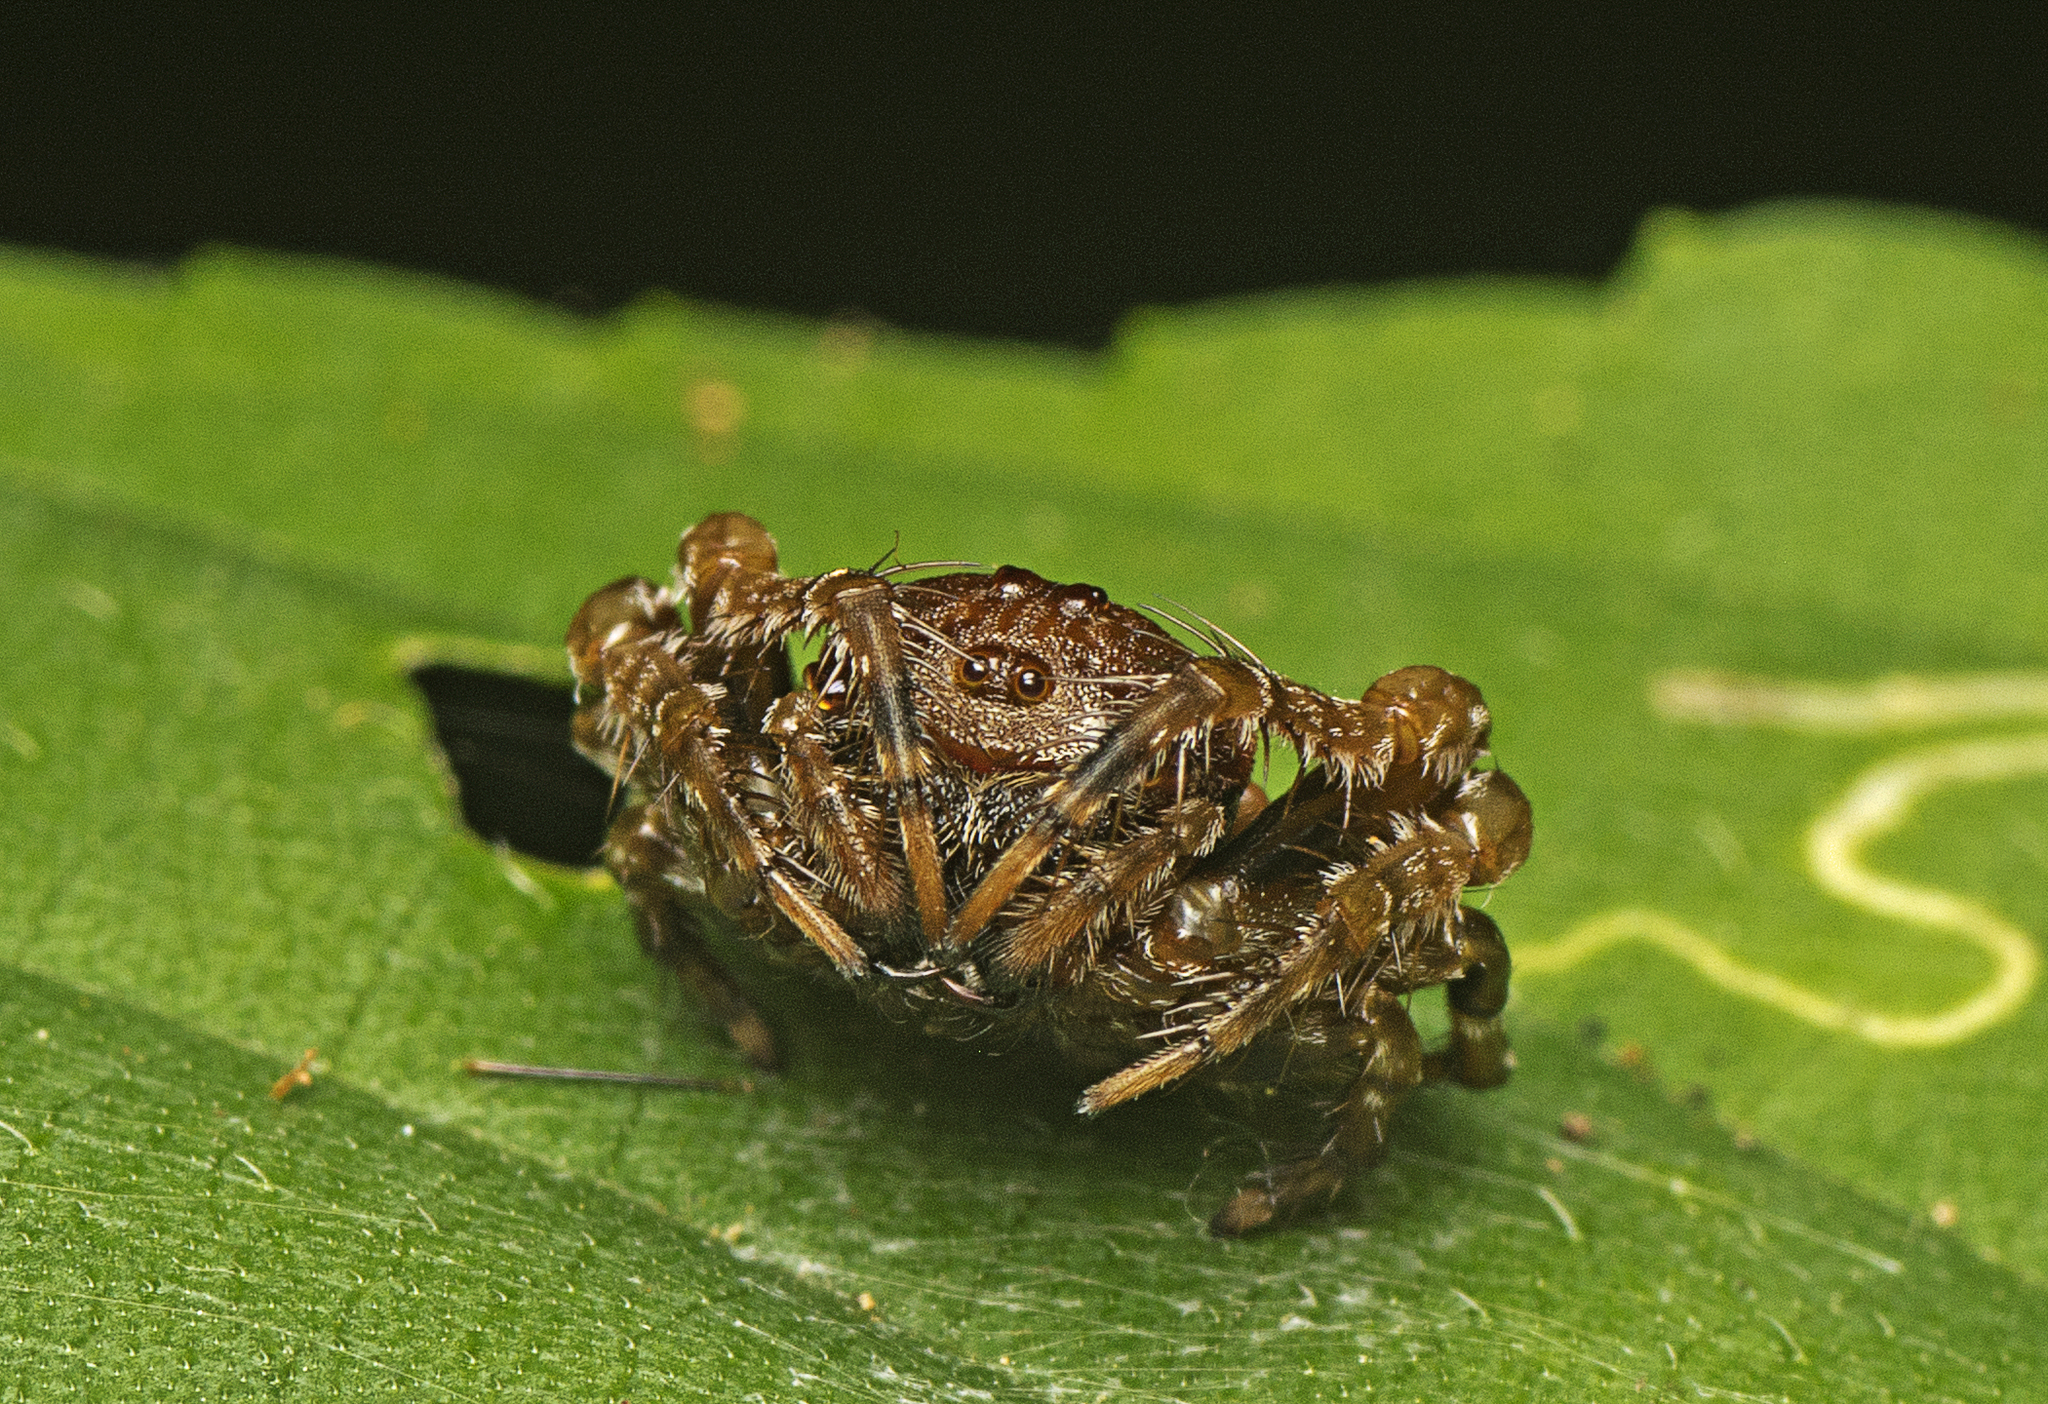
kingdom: Animalia
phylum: Arthropoda
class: Arachnida
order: Araneae
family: Arkyidae
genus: Arkys
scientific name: Arkys curtulus
